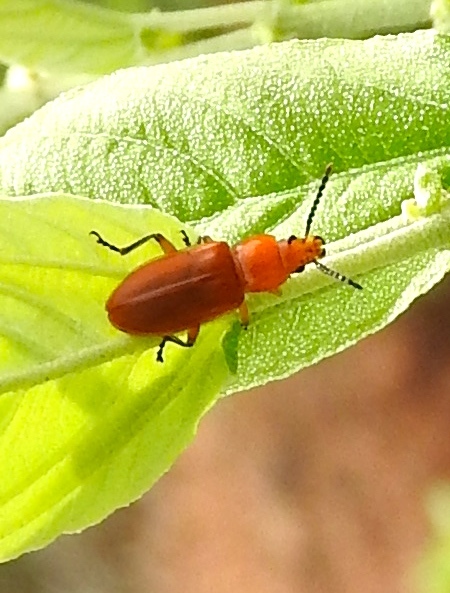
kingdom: Animalia
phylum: Arthropoda
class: Insecta
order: Coleoptera
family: Orsodacnidae
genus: Janbechynea
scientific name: Janbechynea
